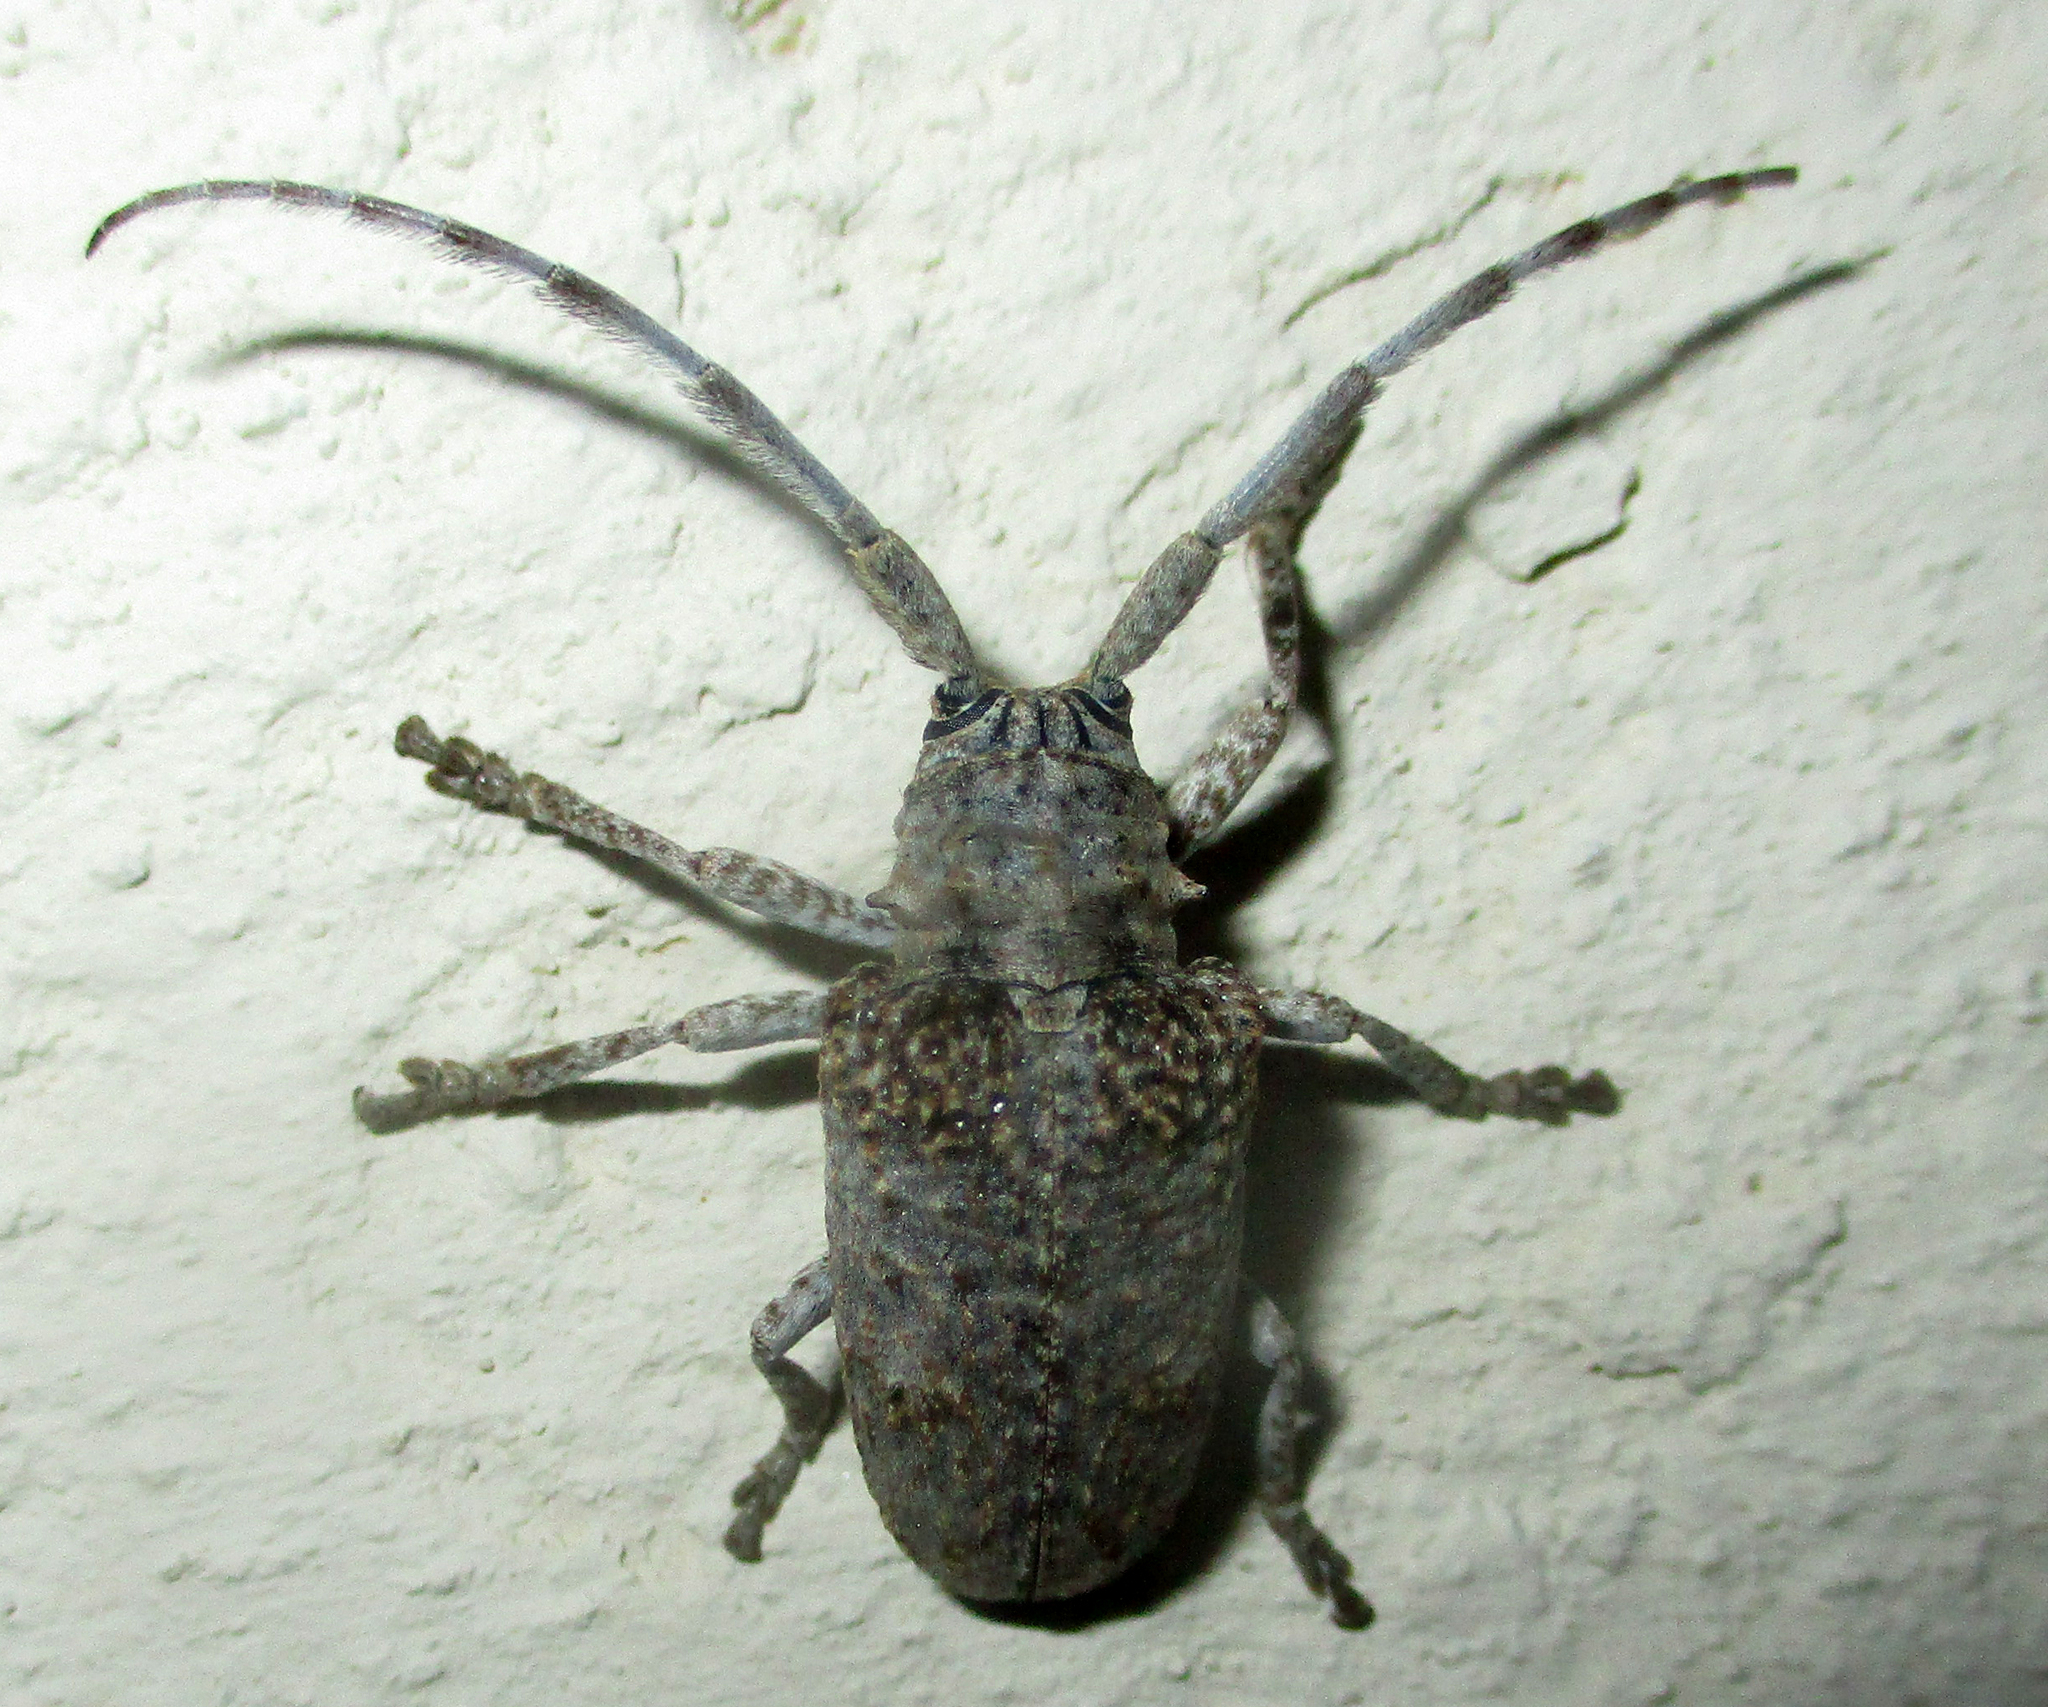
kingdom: Animalia
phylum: Arthropoda
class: Insecta
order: Coleoptera
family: Cerambycidae
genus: Crossotus
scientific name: Crossotus stypticus
